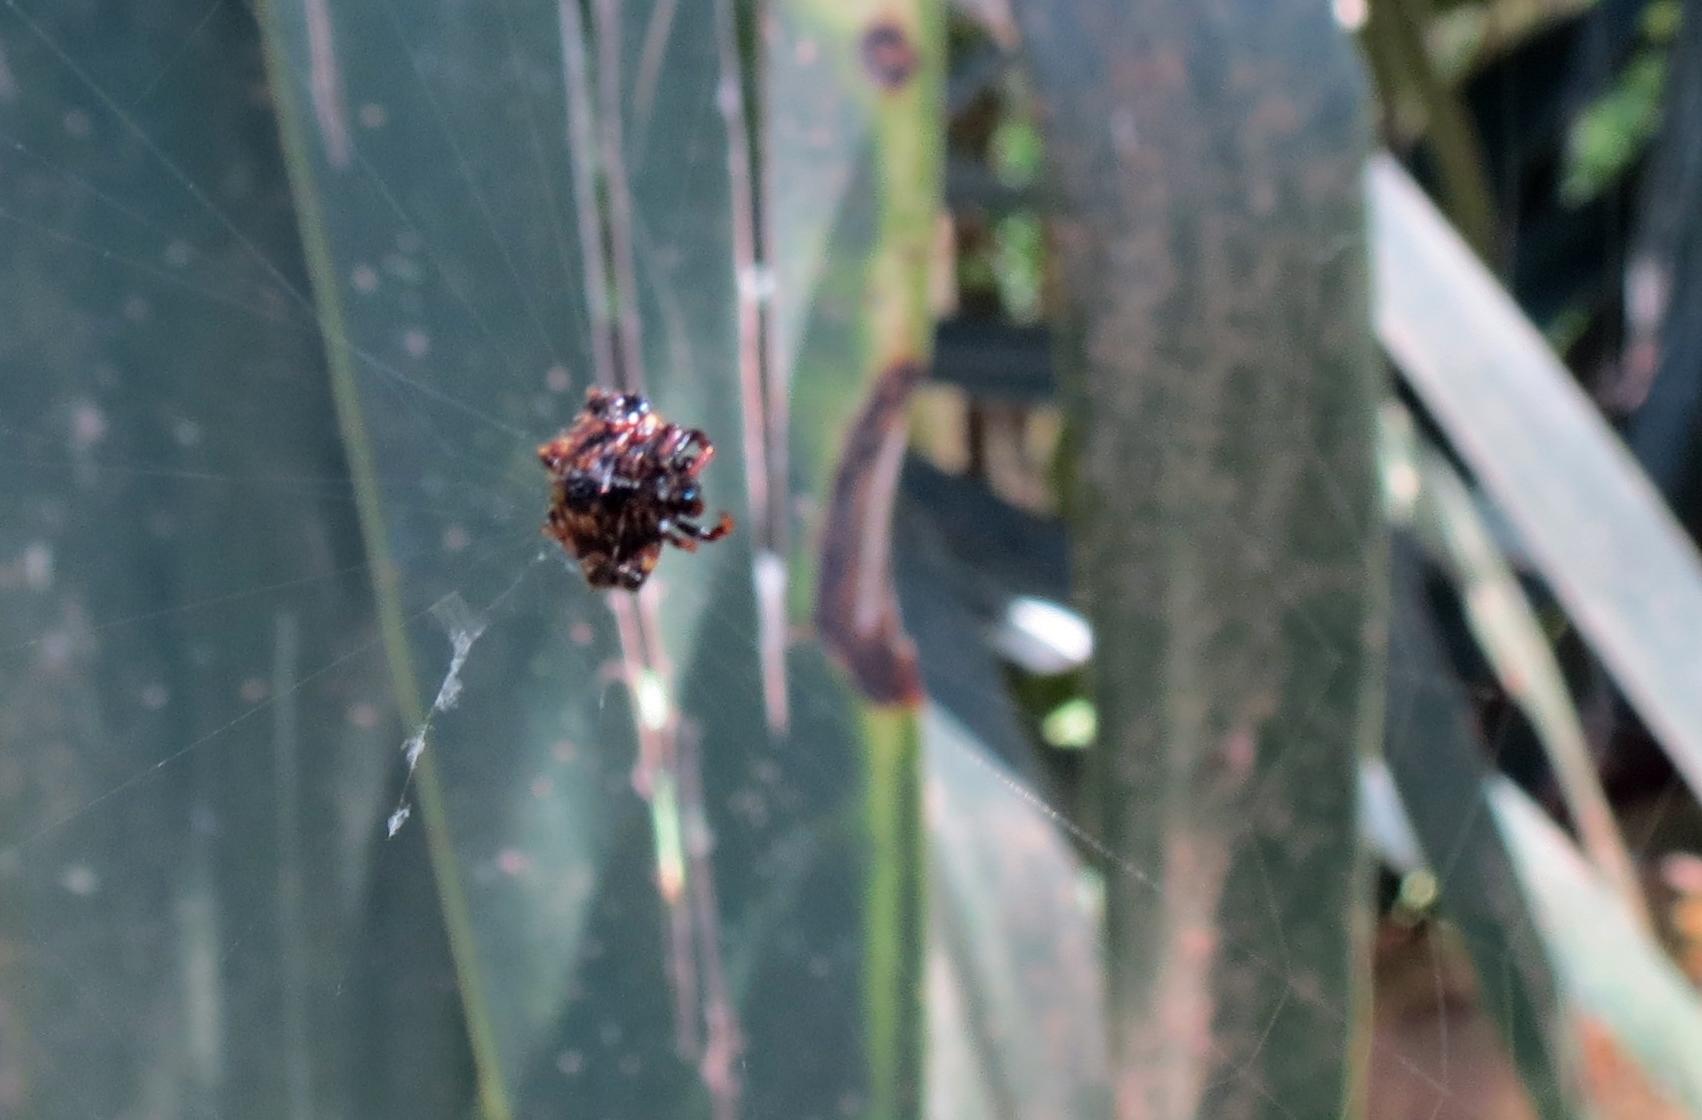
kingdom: Animalia
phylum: Arthropoda
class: Arachnida
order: Araneae
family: Araneidae
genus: Gasteracantha
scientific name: Gasteracantha cancriformis
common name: Orb weavers
